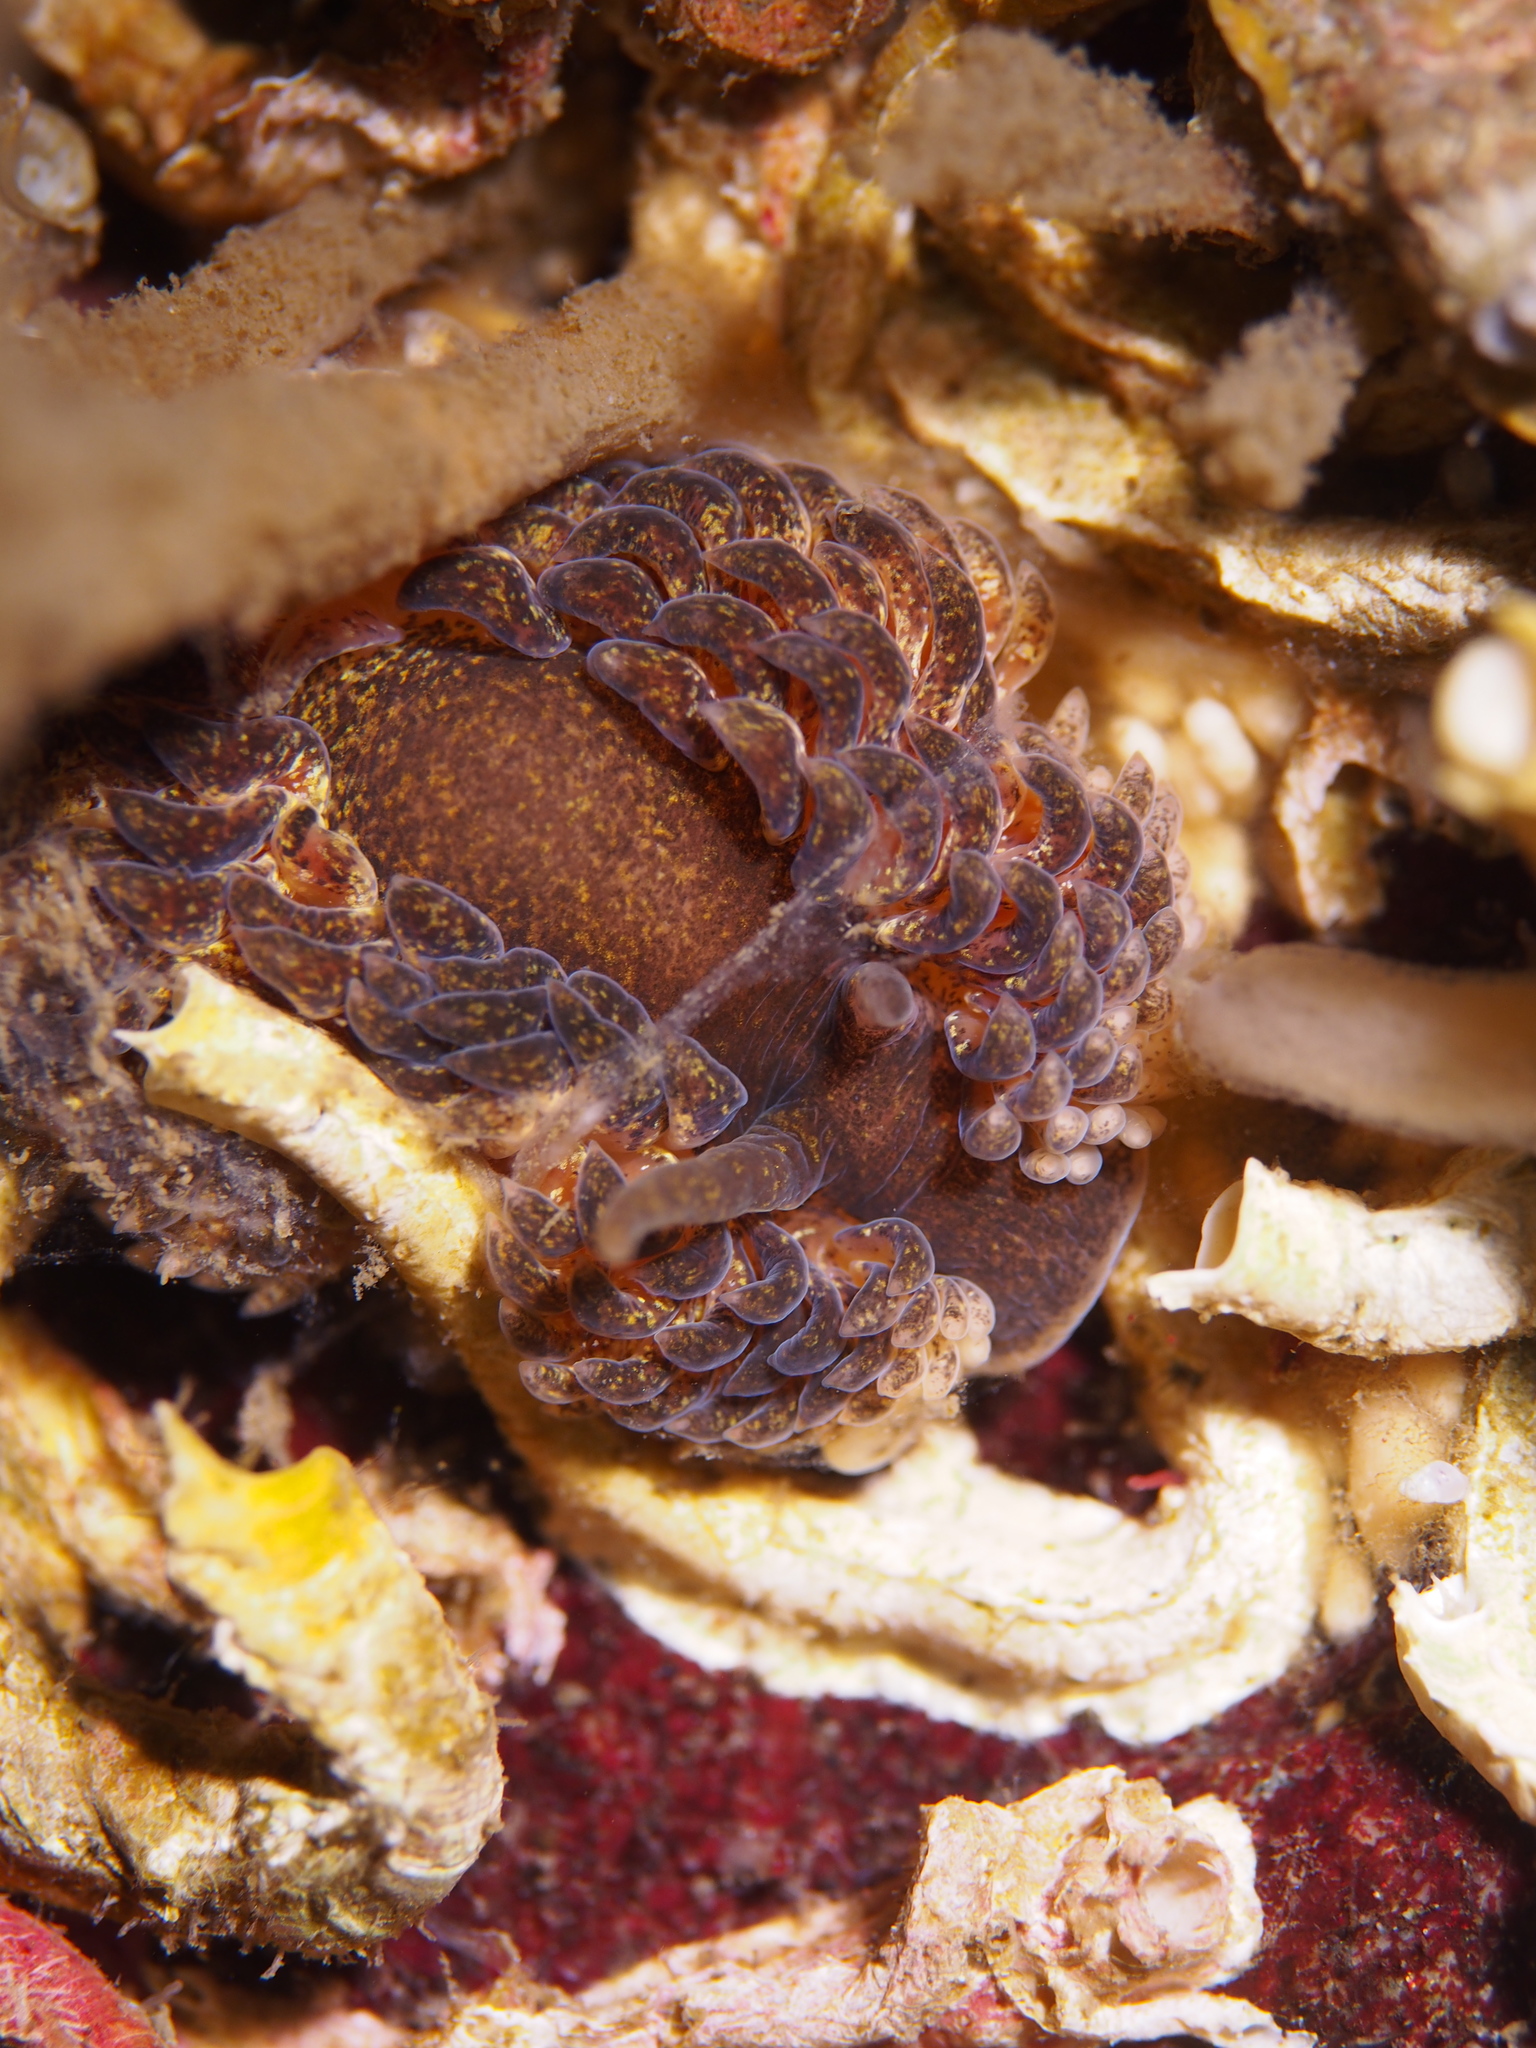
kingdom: Animalia
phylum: Mollusca
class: Gastropoda
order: Nudibranchia
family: Aeolidiidae
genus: Aeolidia
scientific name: Aeolidia papillosa
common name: Common grey sea slug
